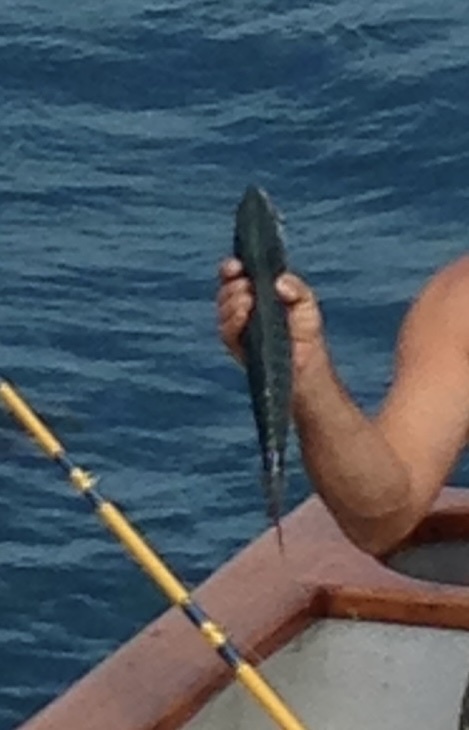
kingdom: Animalia
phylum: Chordata
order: Perciformes
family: Scombridae
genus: Sarda
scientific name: Sarda chiliensis
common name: Pacific bonito
